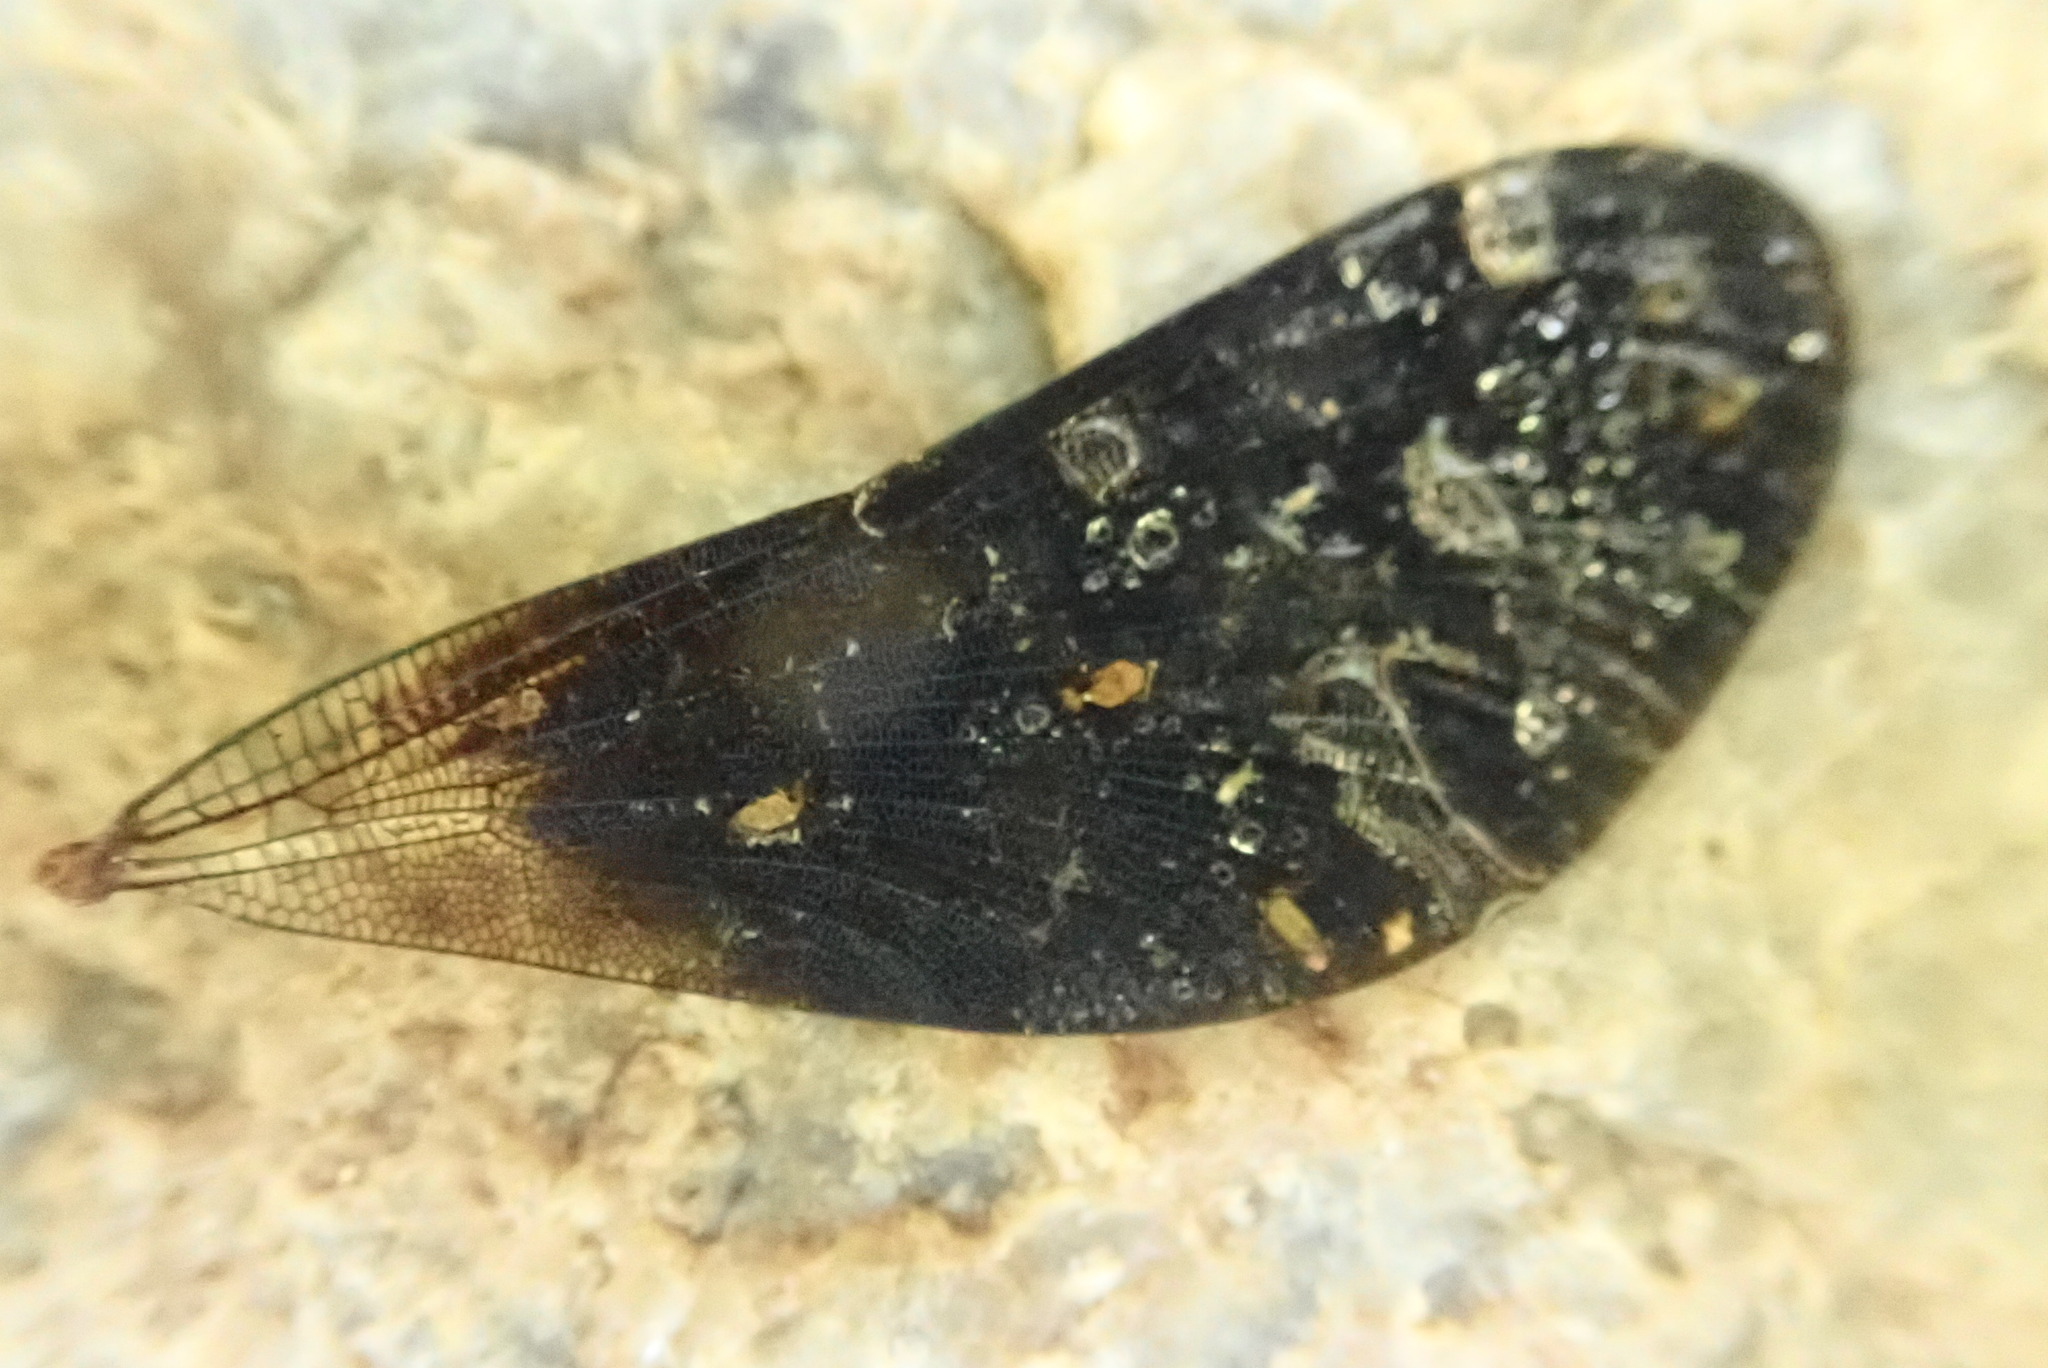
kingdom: Animalia
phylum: Arthropoda
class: Insecta
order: Odonata
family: Calopterygidae
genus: Calopteryx
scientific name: Calopteryx virgo
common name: Beautiful demoiselle
